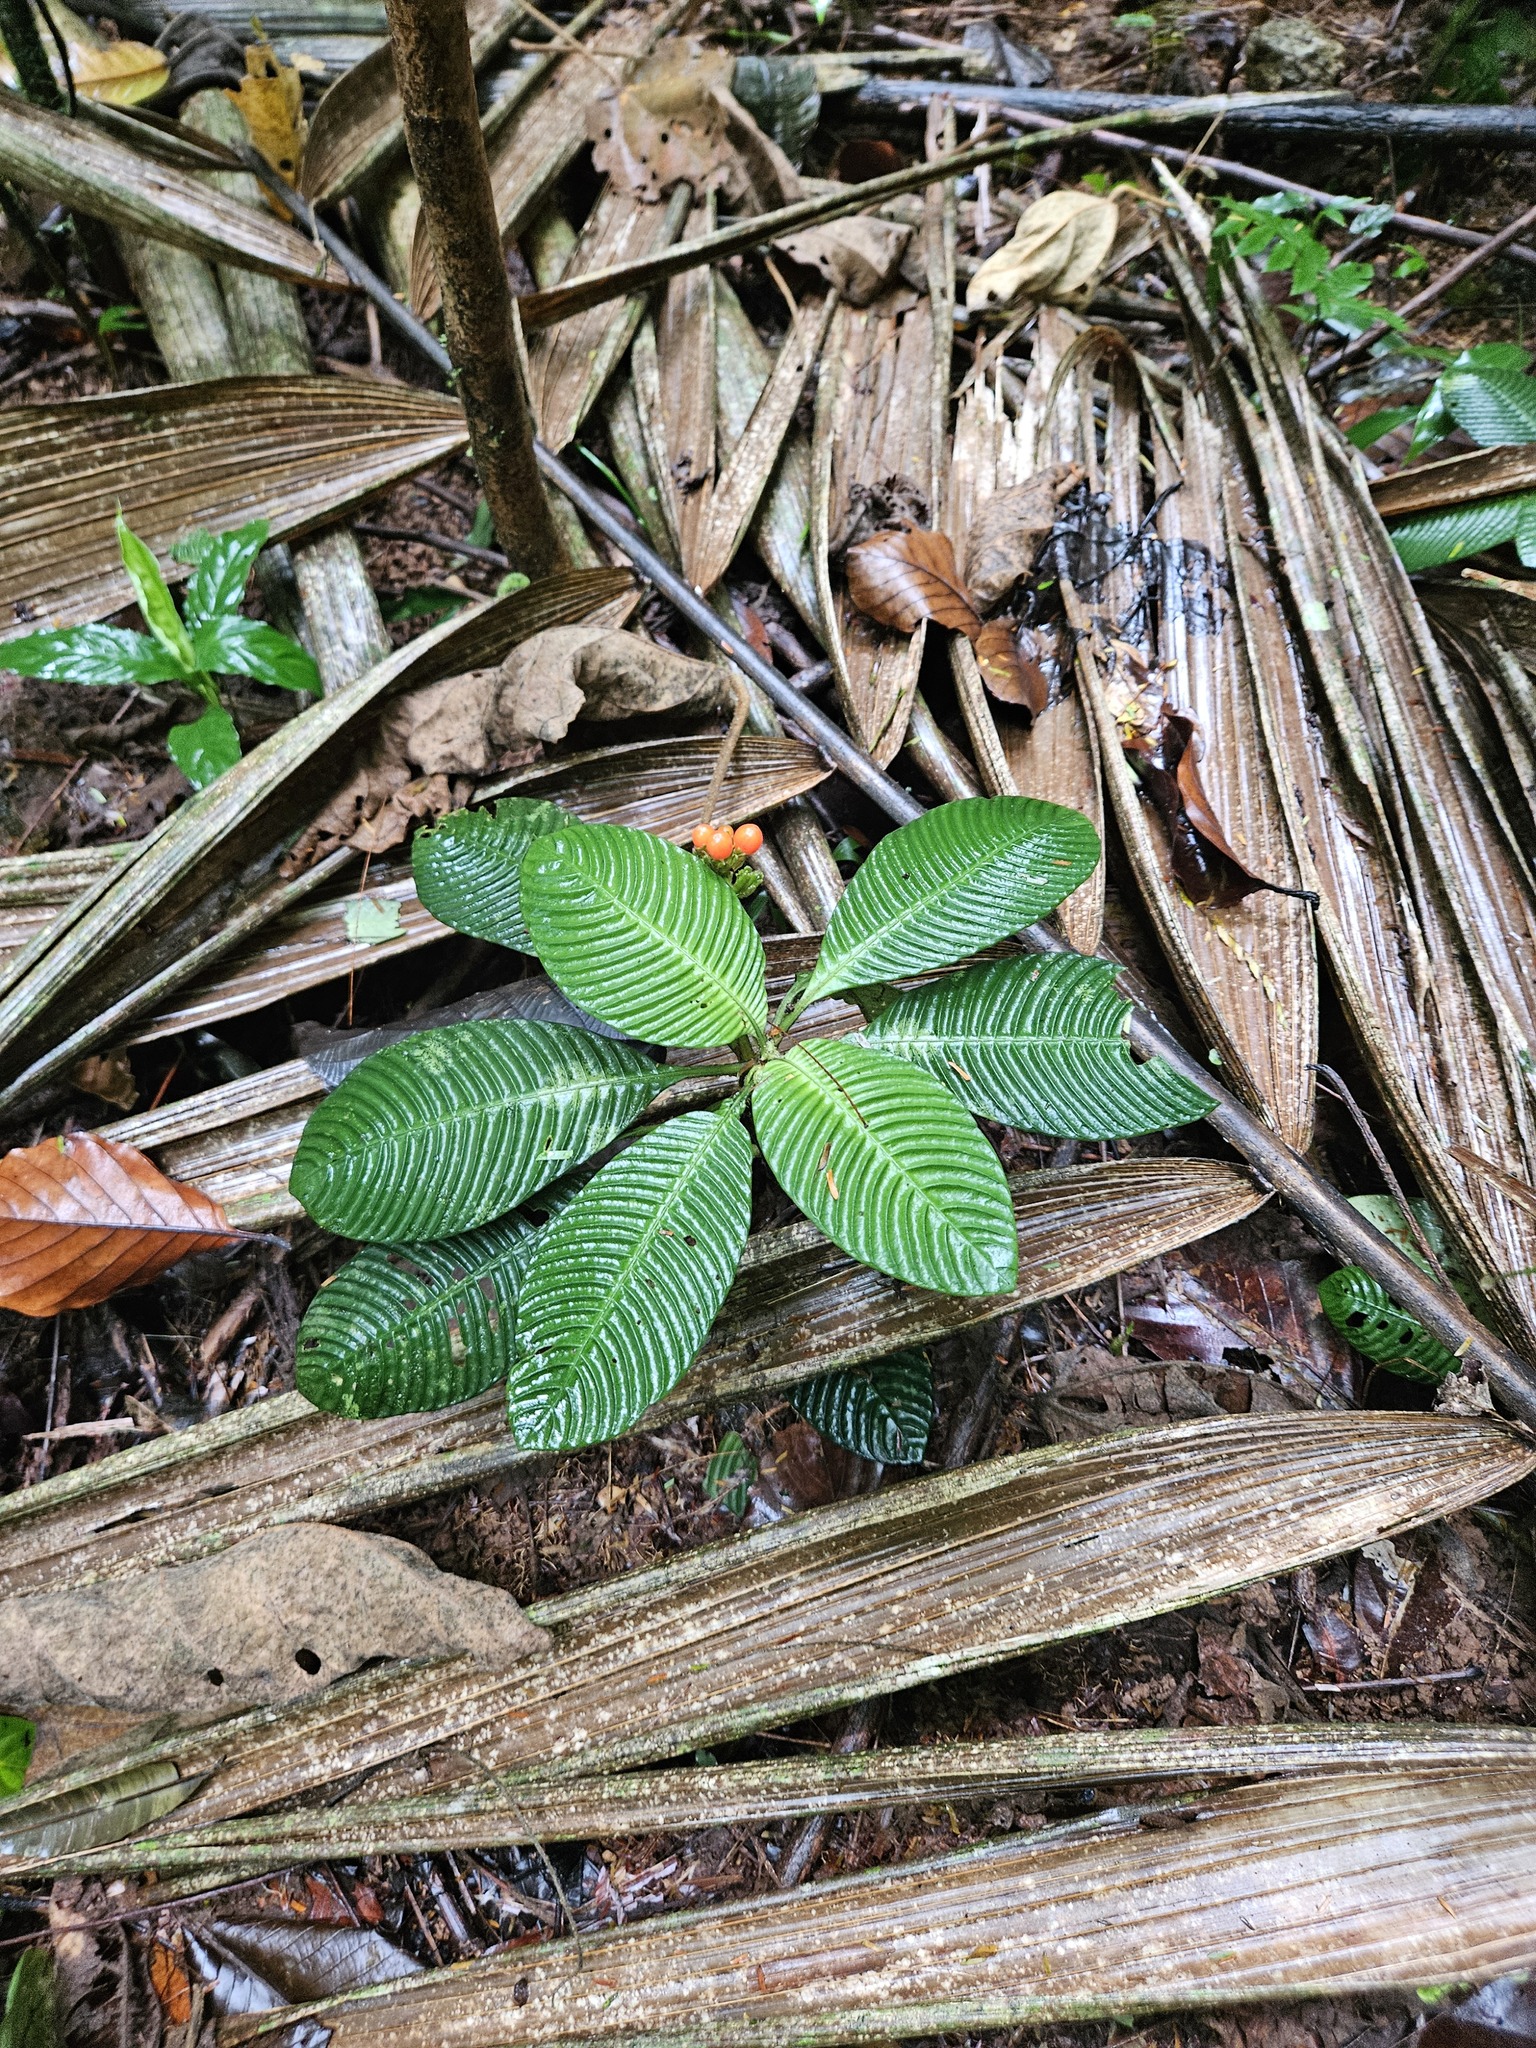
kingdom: Plantae
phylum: Tracheophyta
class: Magnoliopsida
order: Gentianales
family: Rubiaceae
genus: Notopleura
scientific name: Notopleura polyphlebia
